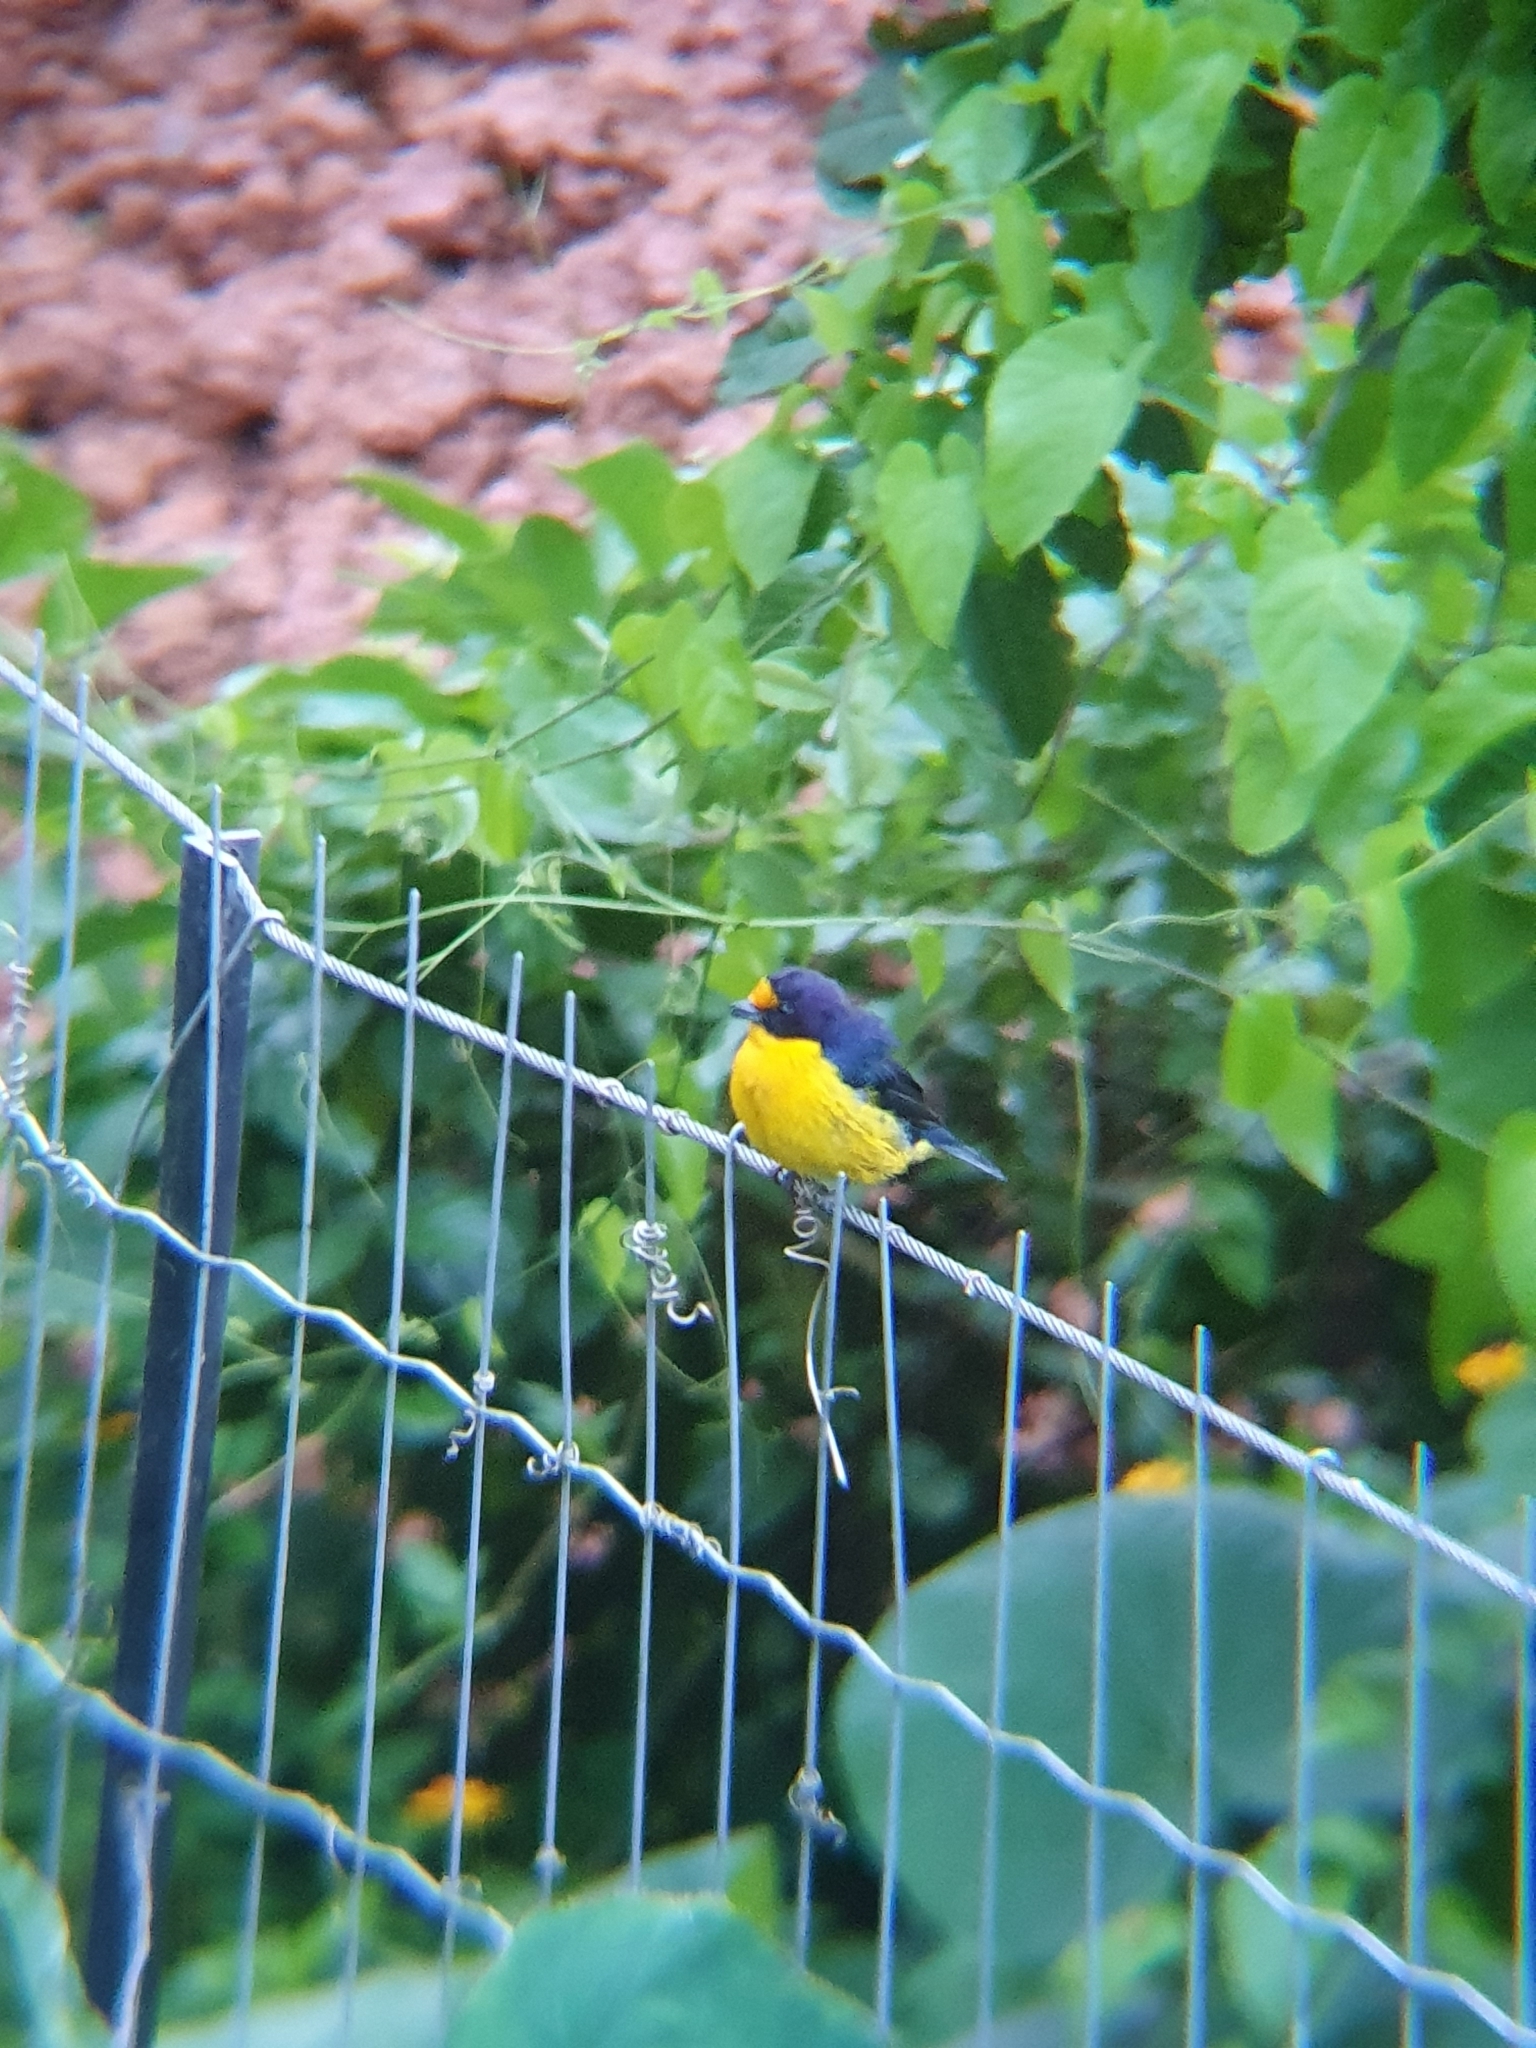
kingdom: Animalia
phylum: Chordata
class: Aves
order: Passeriformes
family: Fringillidae
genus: Euphonia
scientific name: Euphonia violacea
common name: Violaceous euphonia
